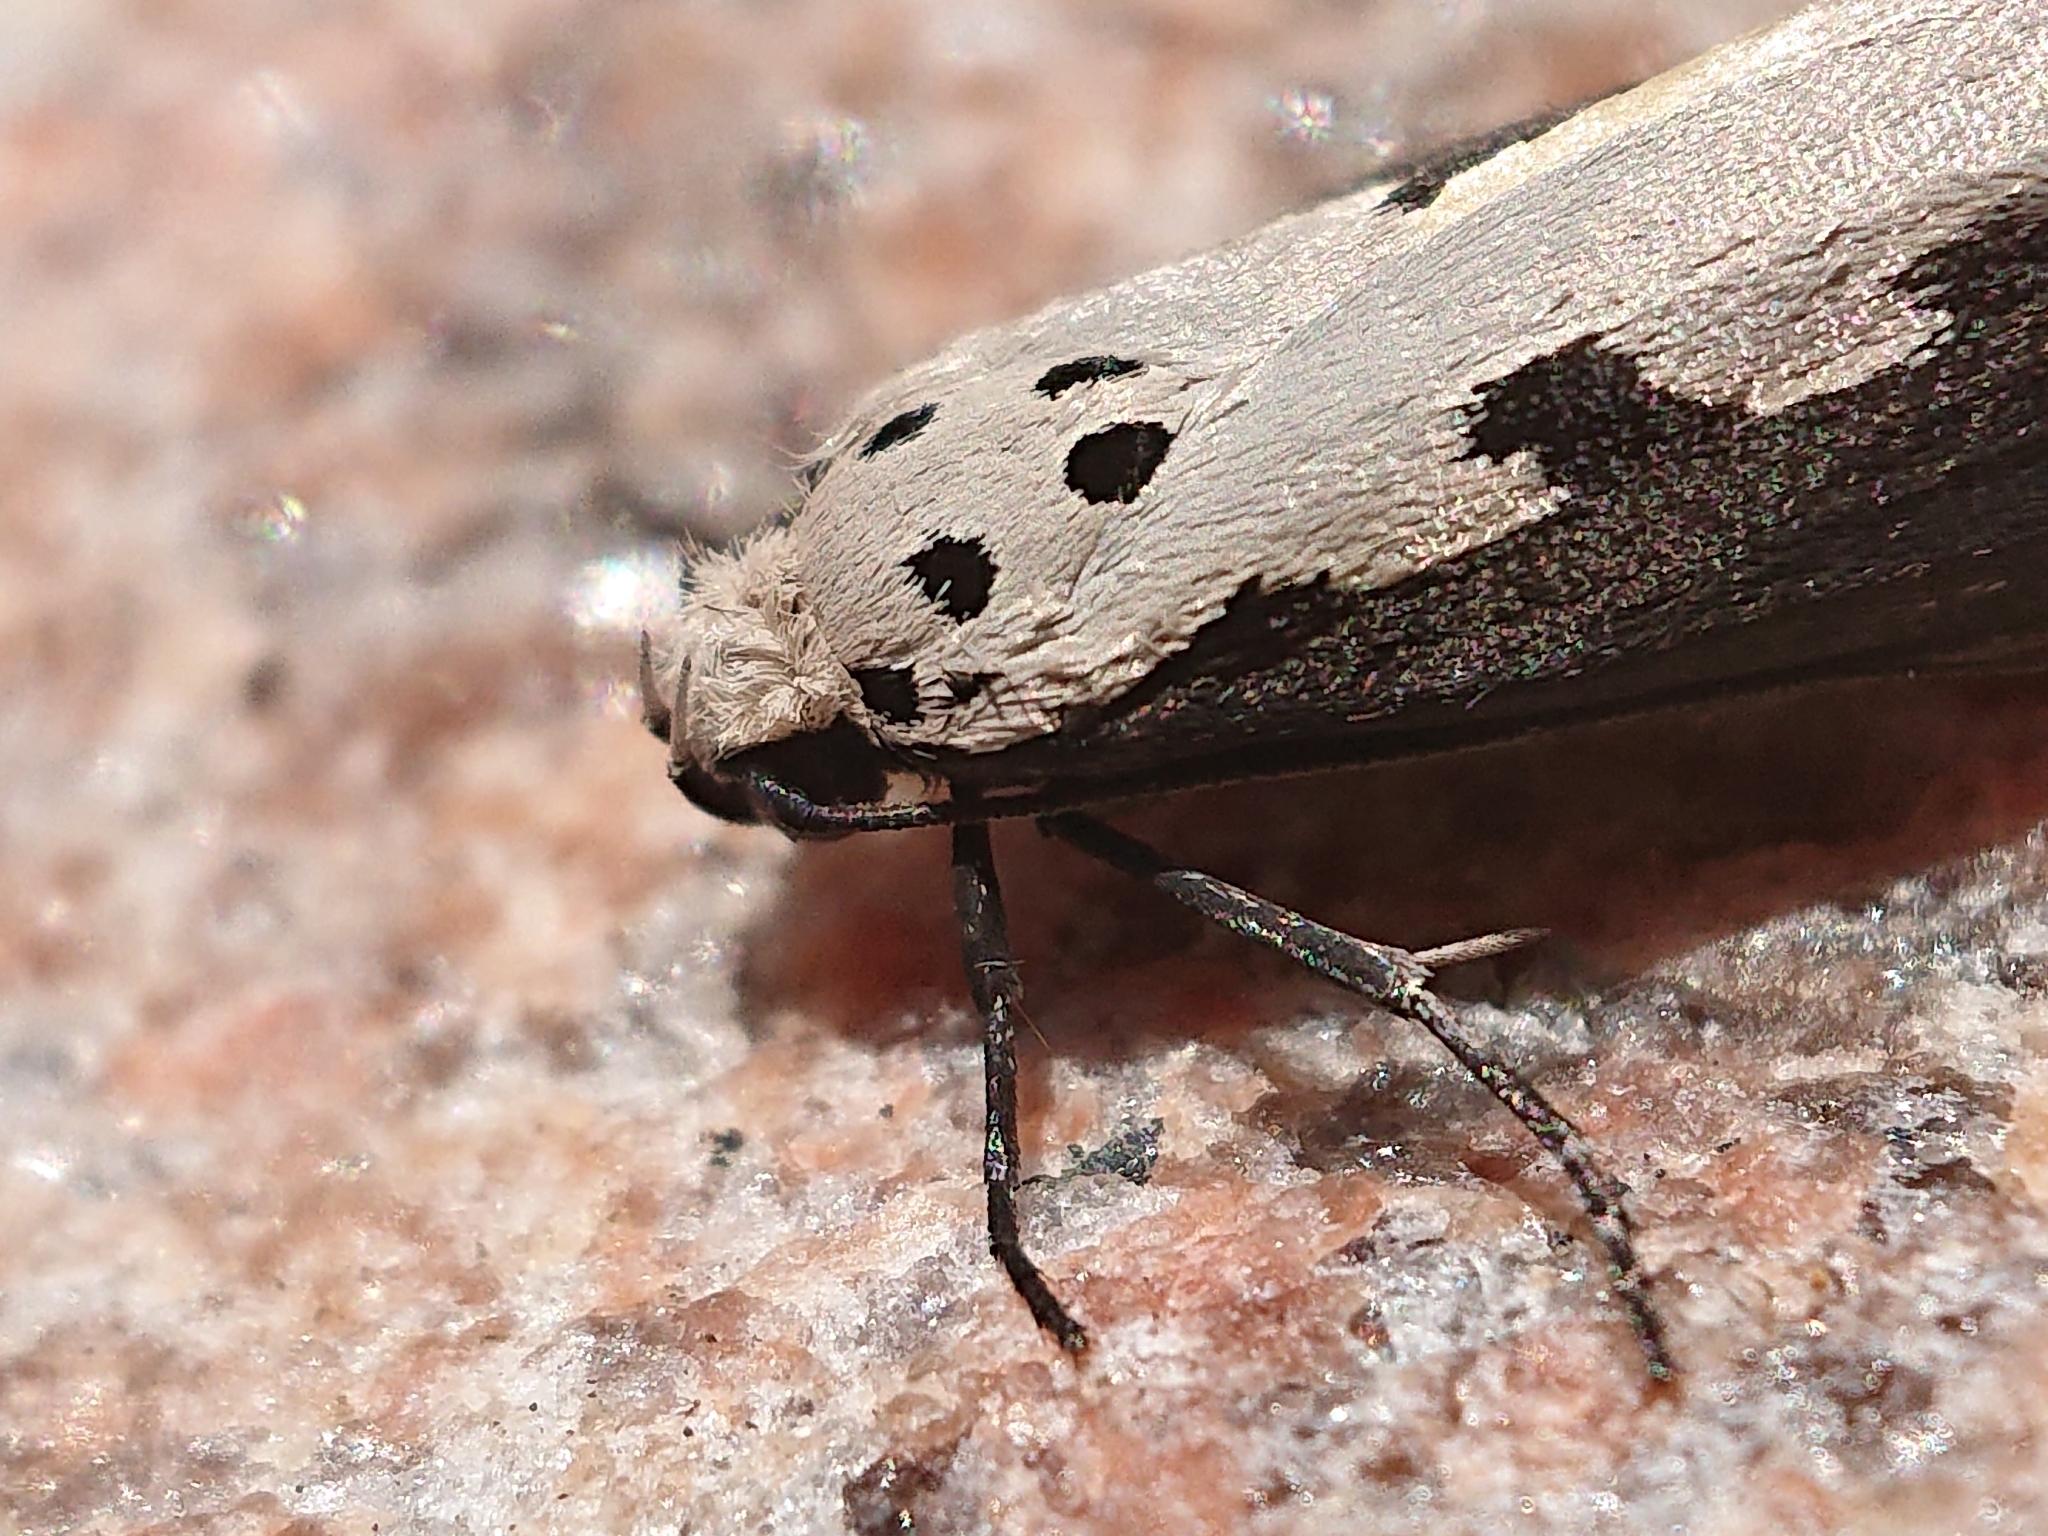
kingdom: Animalia
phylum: Arthropoda
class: Insecta
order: Lepidoptera
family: Ethmiidae
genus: Ethmia
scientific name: Ethmia bipunctella
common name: Bordered ermel
